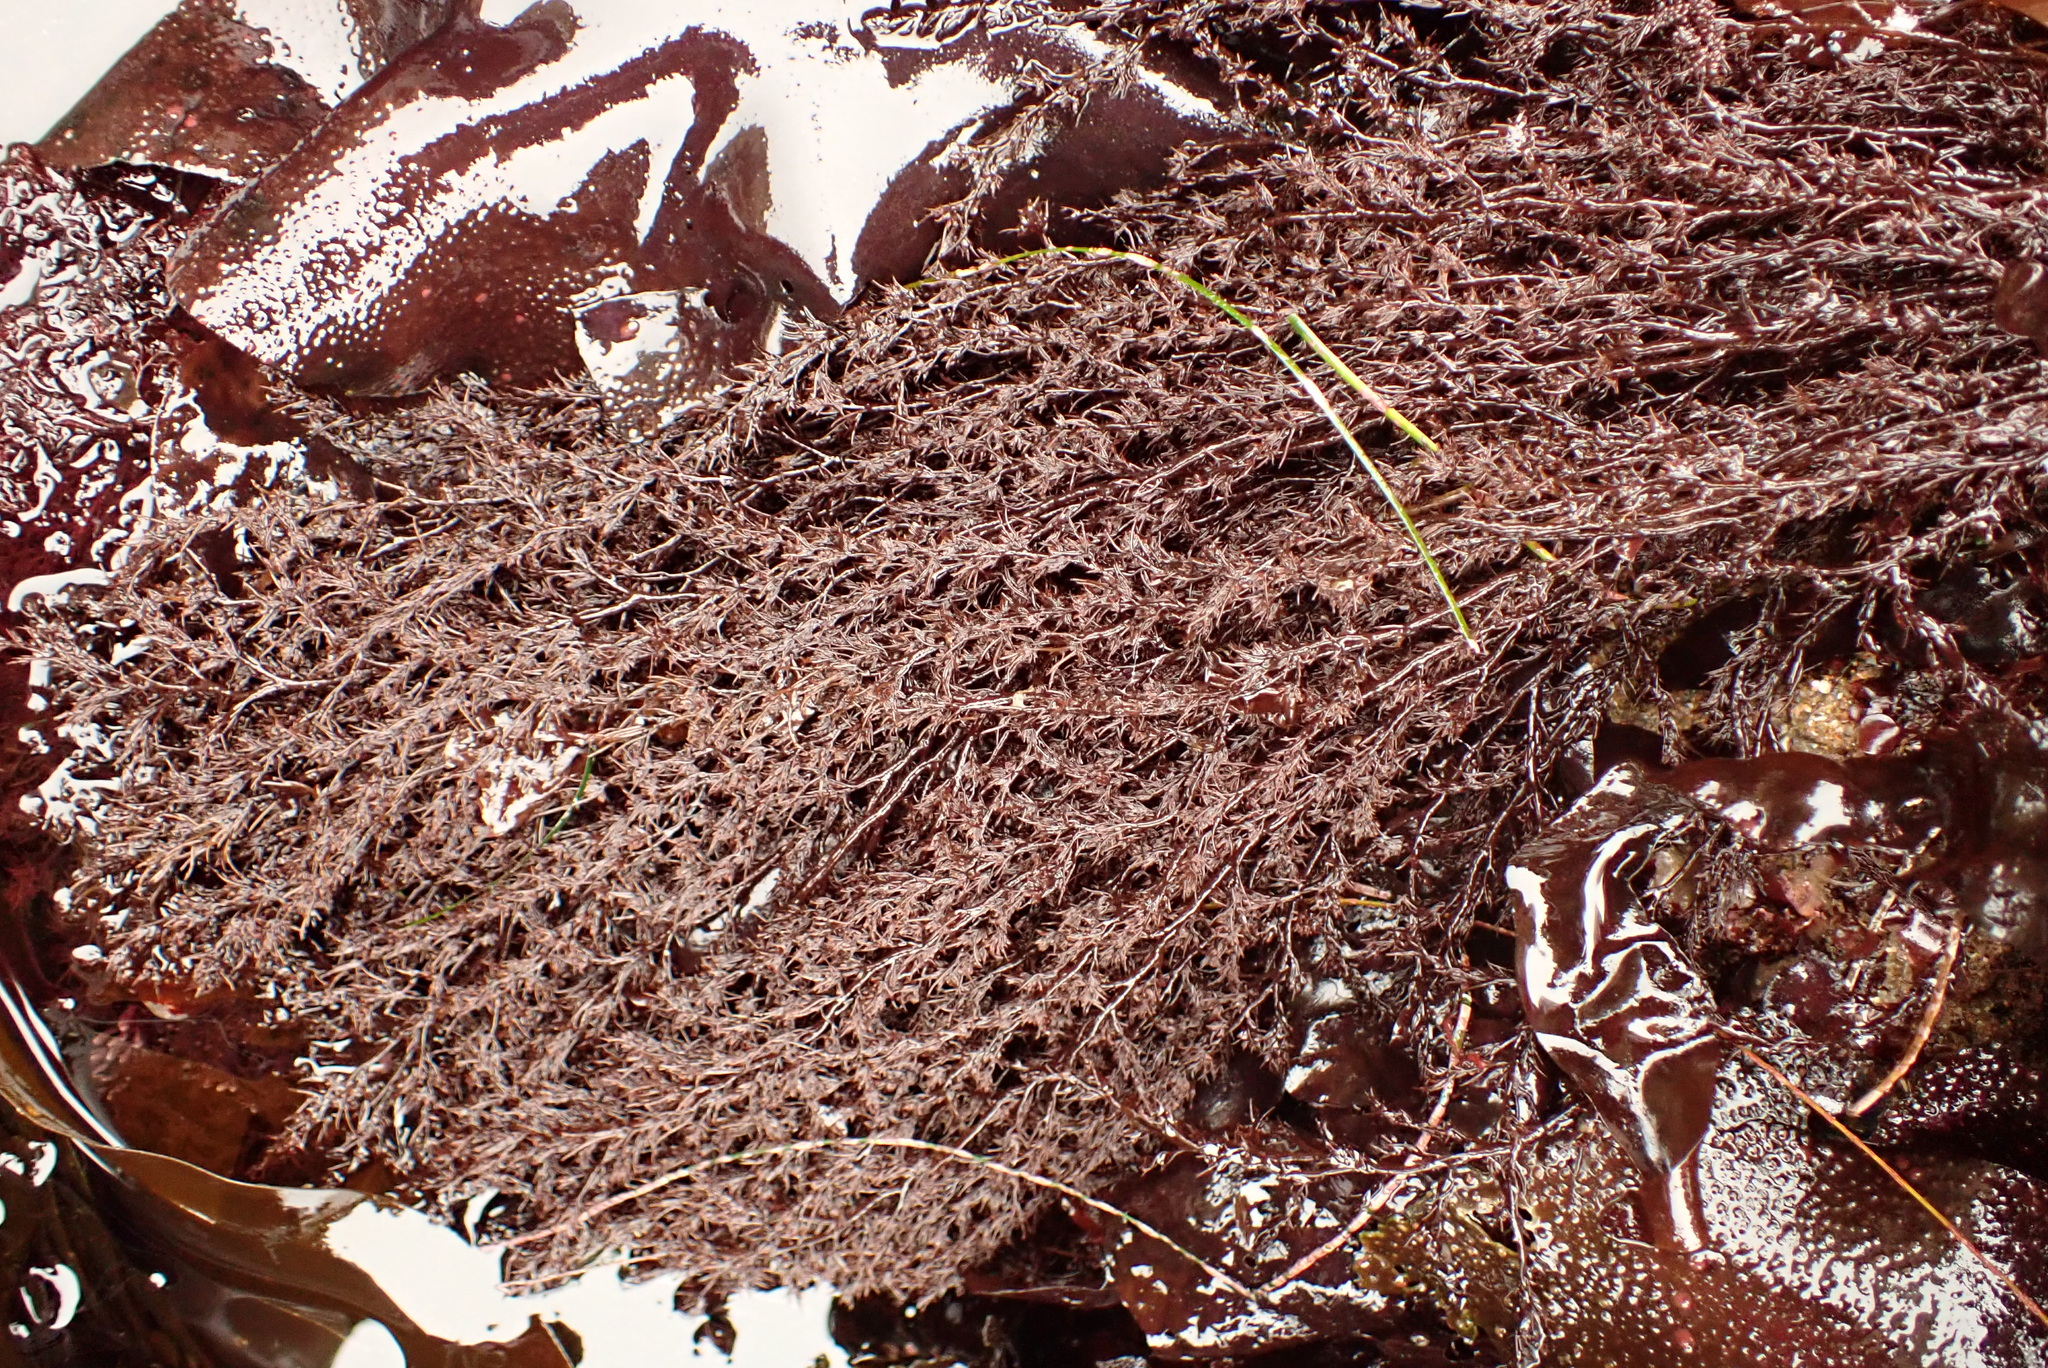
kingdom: Plantae
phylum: Rhodophyta
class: Florideophyceae
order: Ceramiales
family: Rhodomelaceae
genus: Odonthalia
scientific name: Odonthalia floccosa
